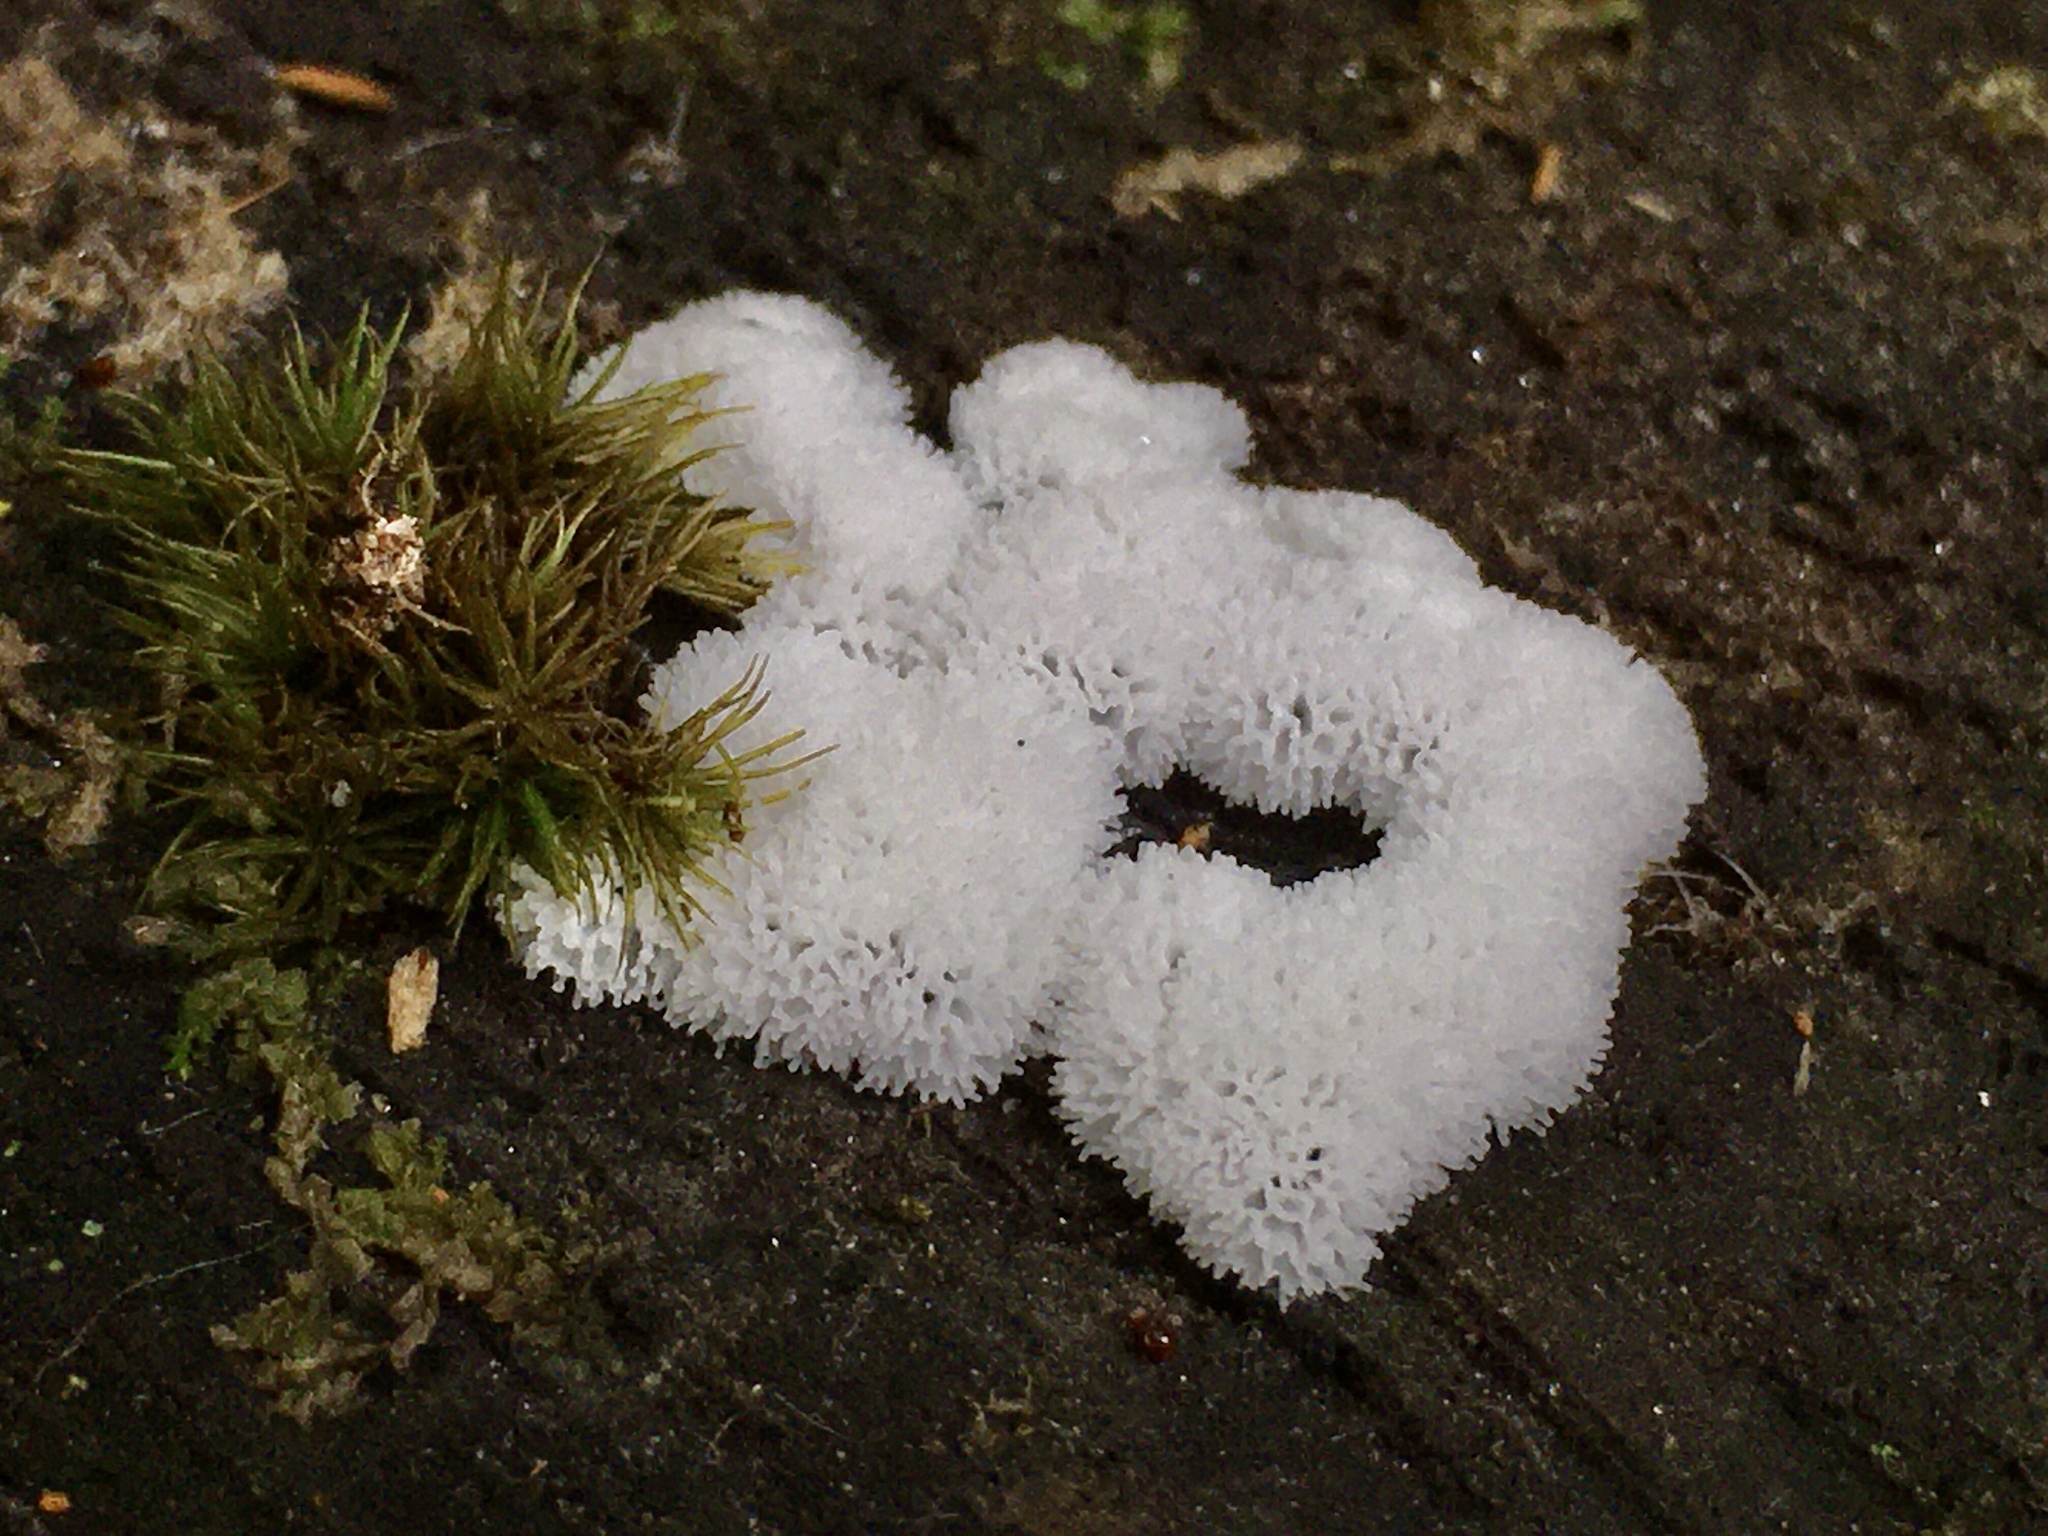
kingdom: Protozoa
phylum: Mycetozoa
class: Protosteliomycetes
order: Ceratiomyxales
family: Ceratiomyxaceae
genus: Ceratiomyxa
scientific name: Ceratiomyxa fruticulosa
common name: Honeycomb coral slime mold
